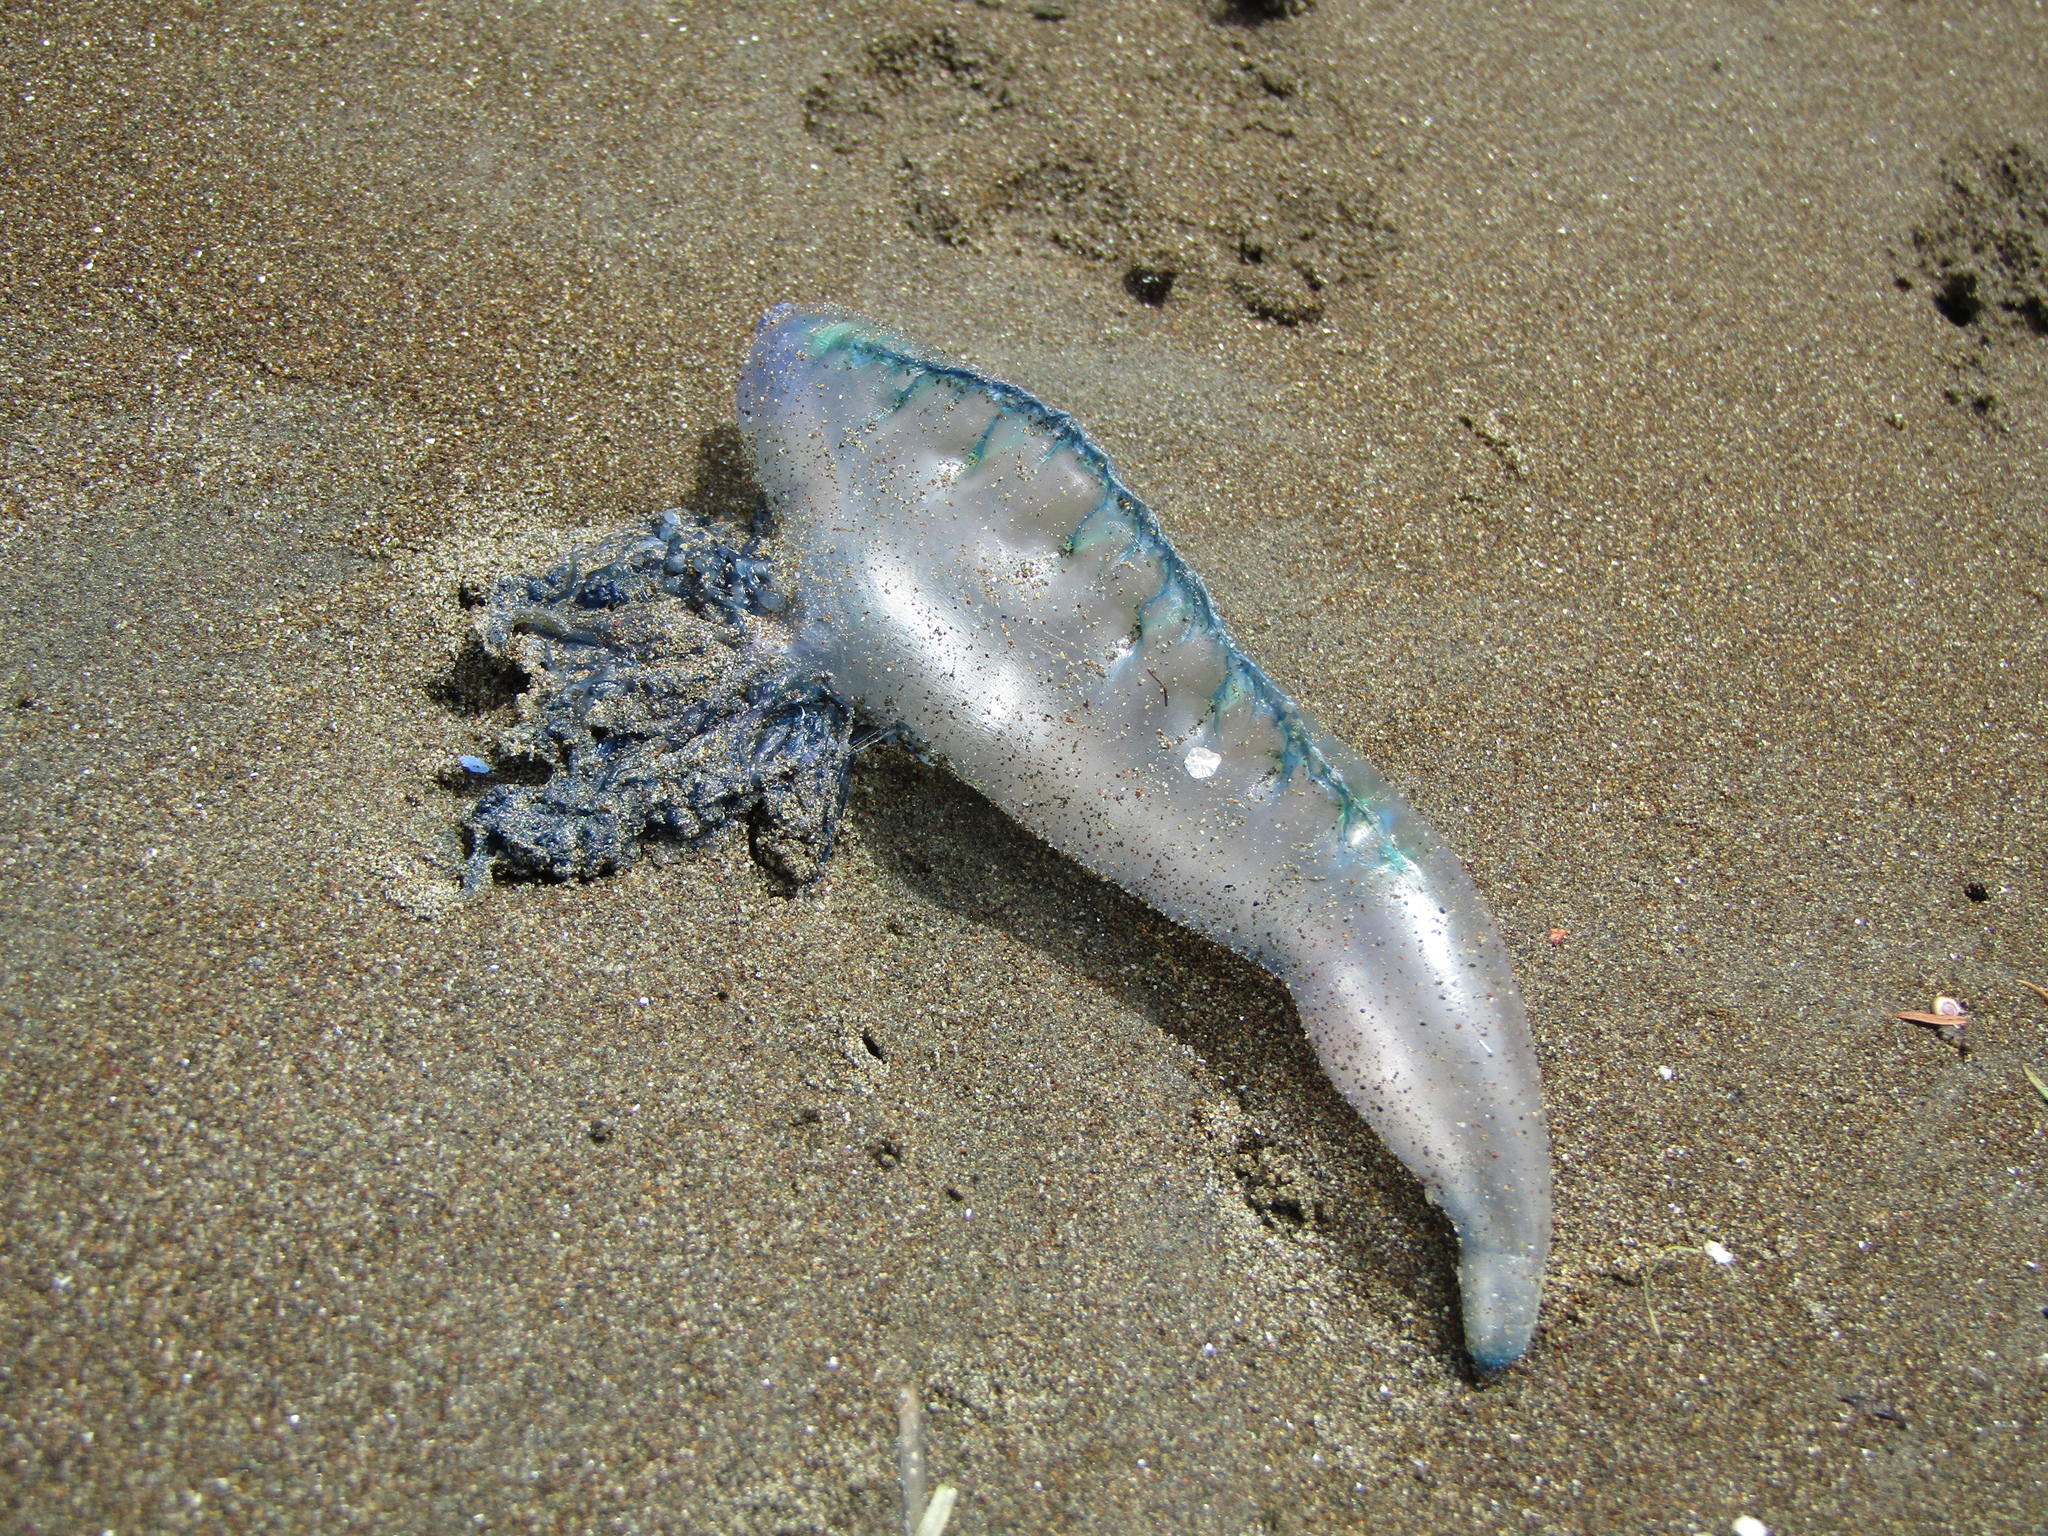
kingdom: Animalia
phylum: Cnidaria
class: Hydrozoa
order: Siphonophorae
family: Physaliidae
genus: Physalia
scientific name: Physalia physalis
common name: Portuguese man-of-war
